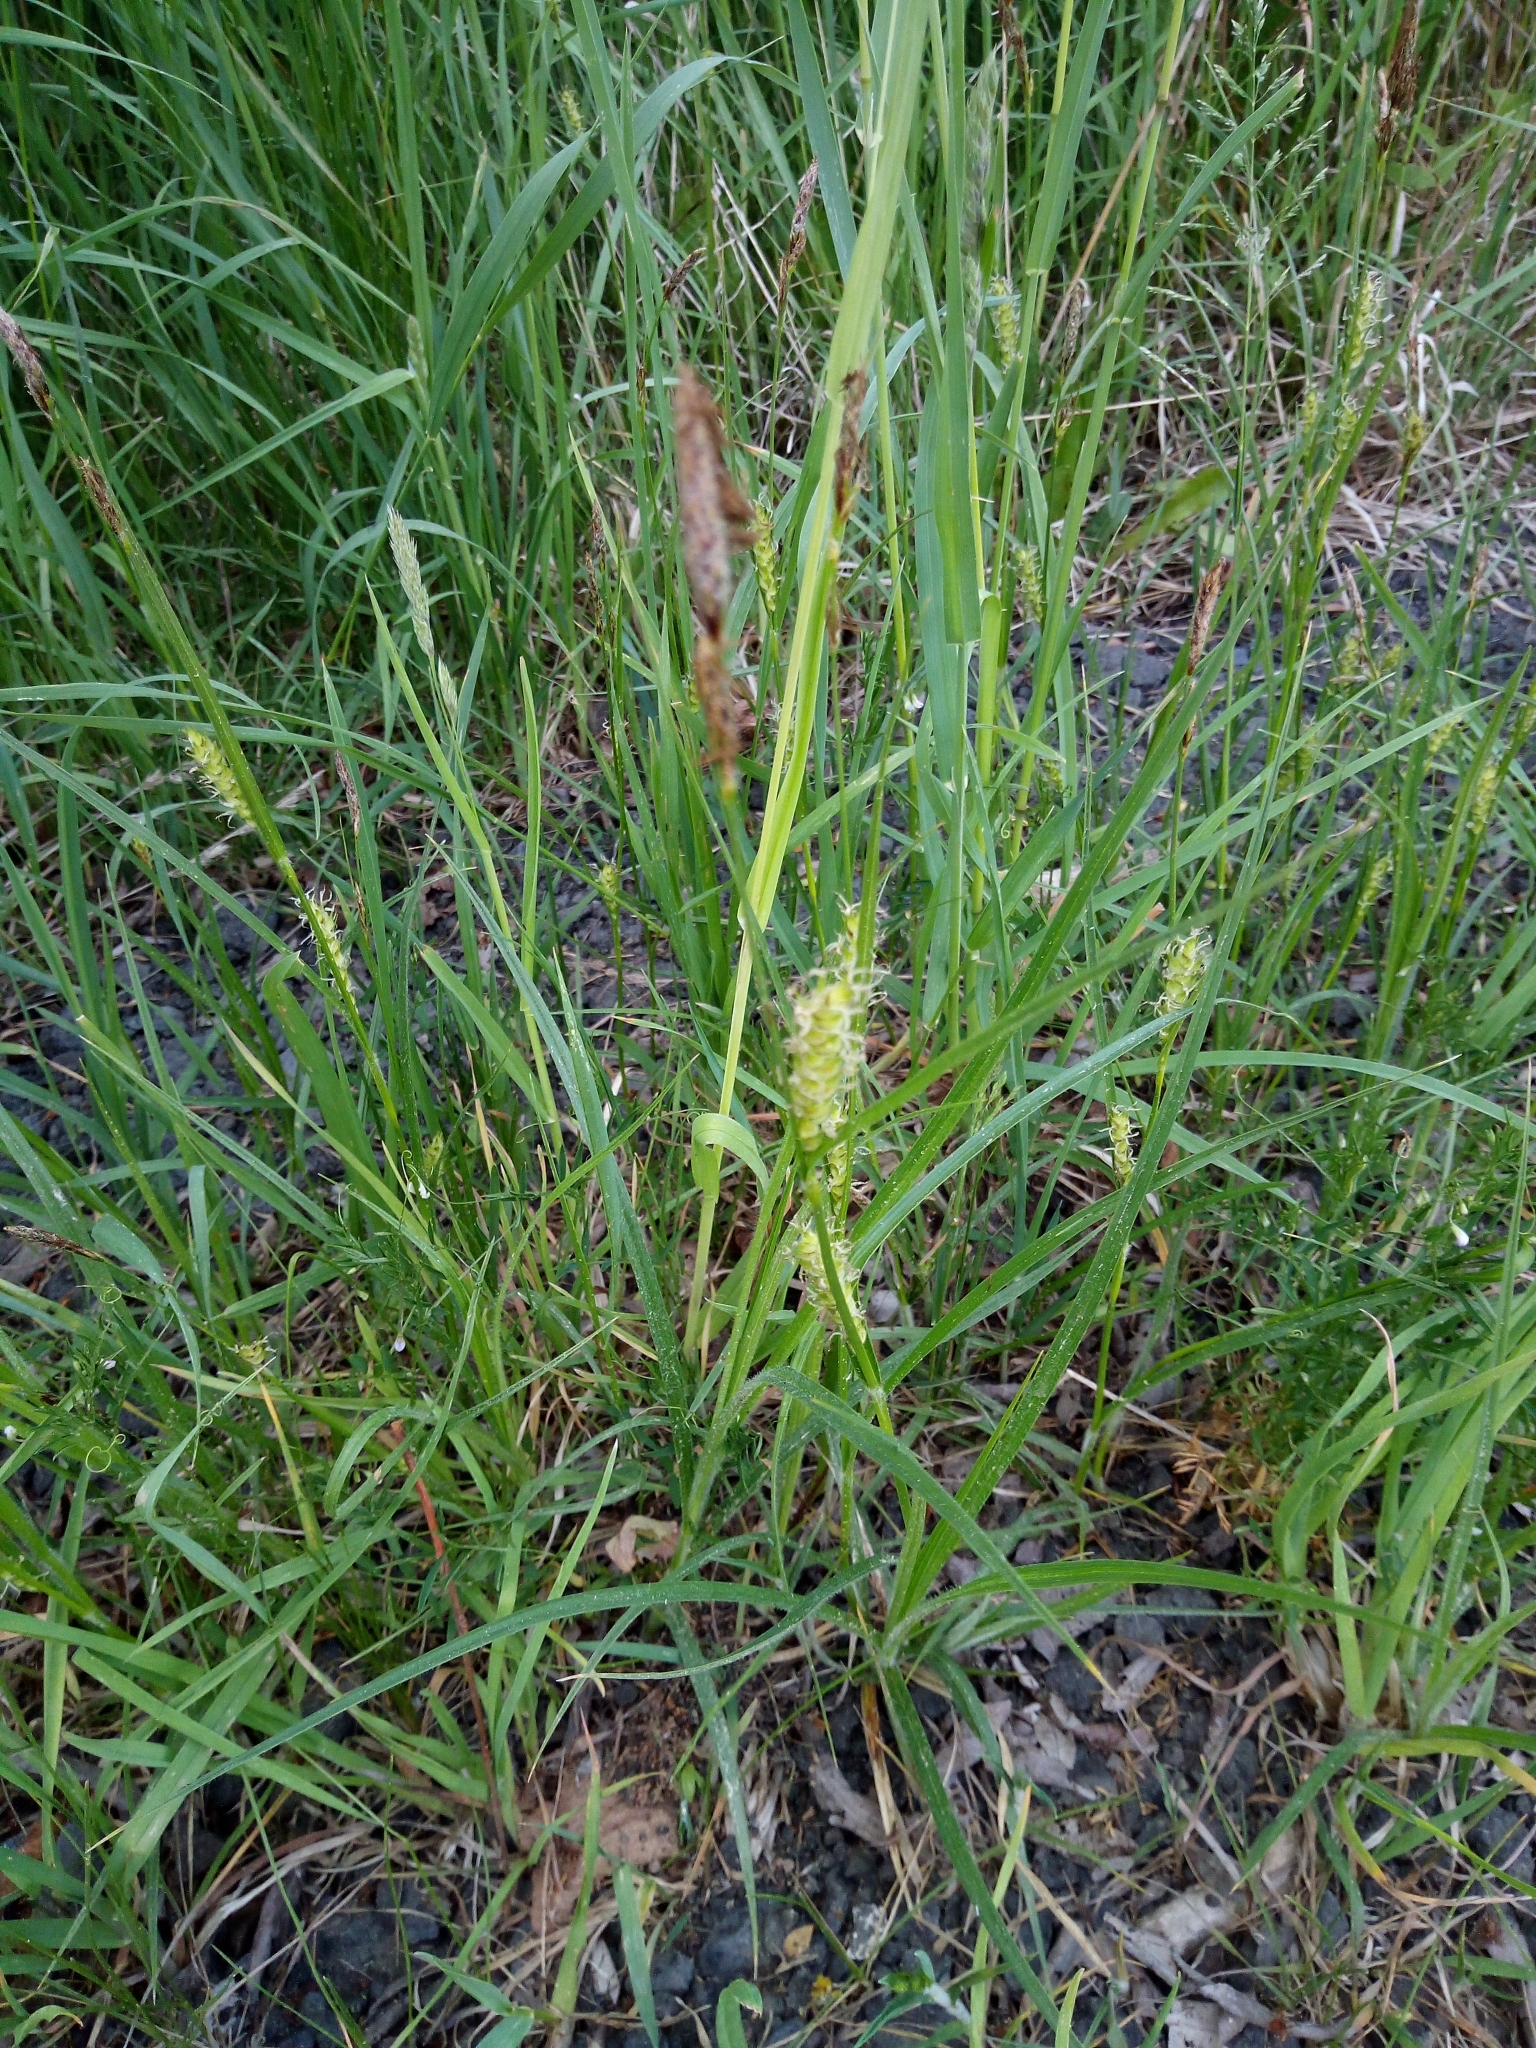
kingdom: Plantae
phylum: Tracheophyta
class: Liliopsida
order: Poales
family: Cyperaceae
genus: Carex
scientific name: Carex hirta
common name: Hairy sedge
